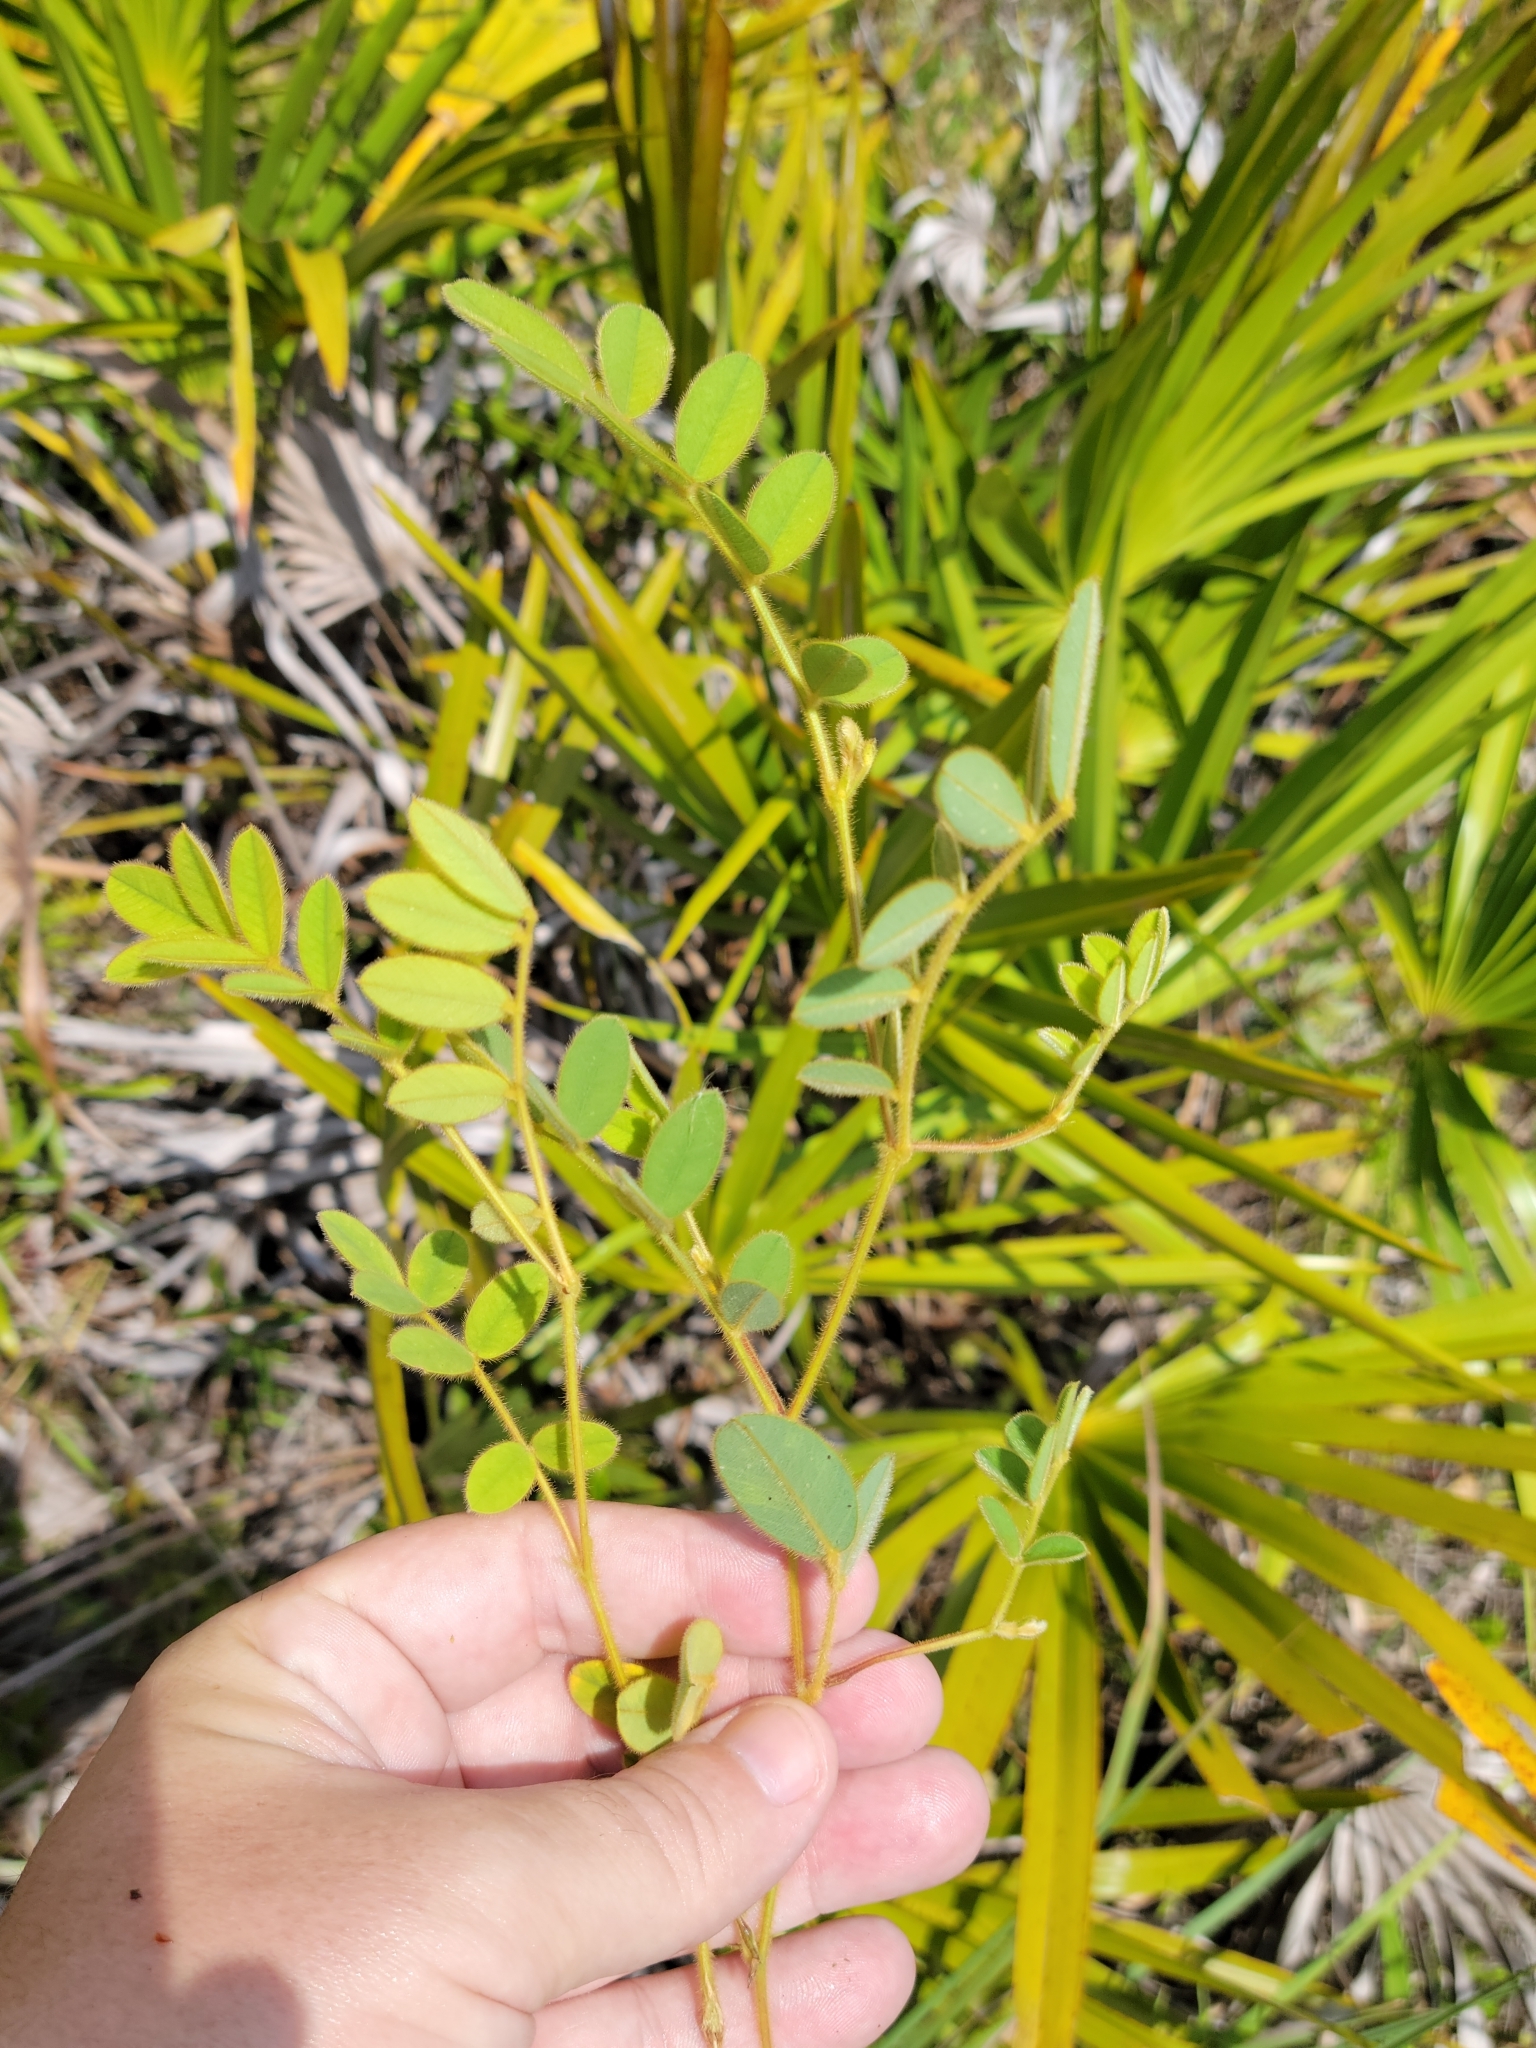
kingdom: Plantae
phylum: Tracheophyta
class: Magnoliopsida
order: Fabales
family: Fabaceae
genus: Tephrosia
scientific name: Tephrosia spicata
